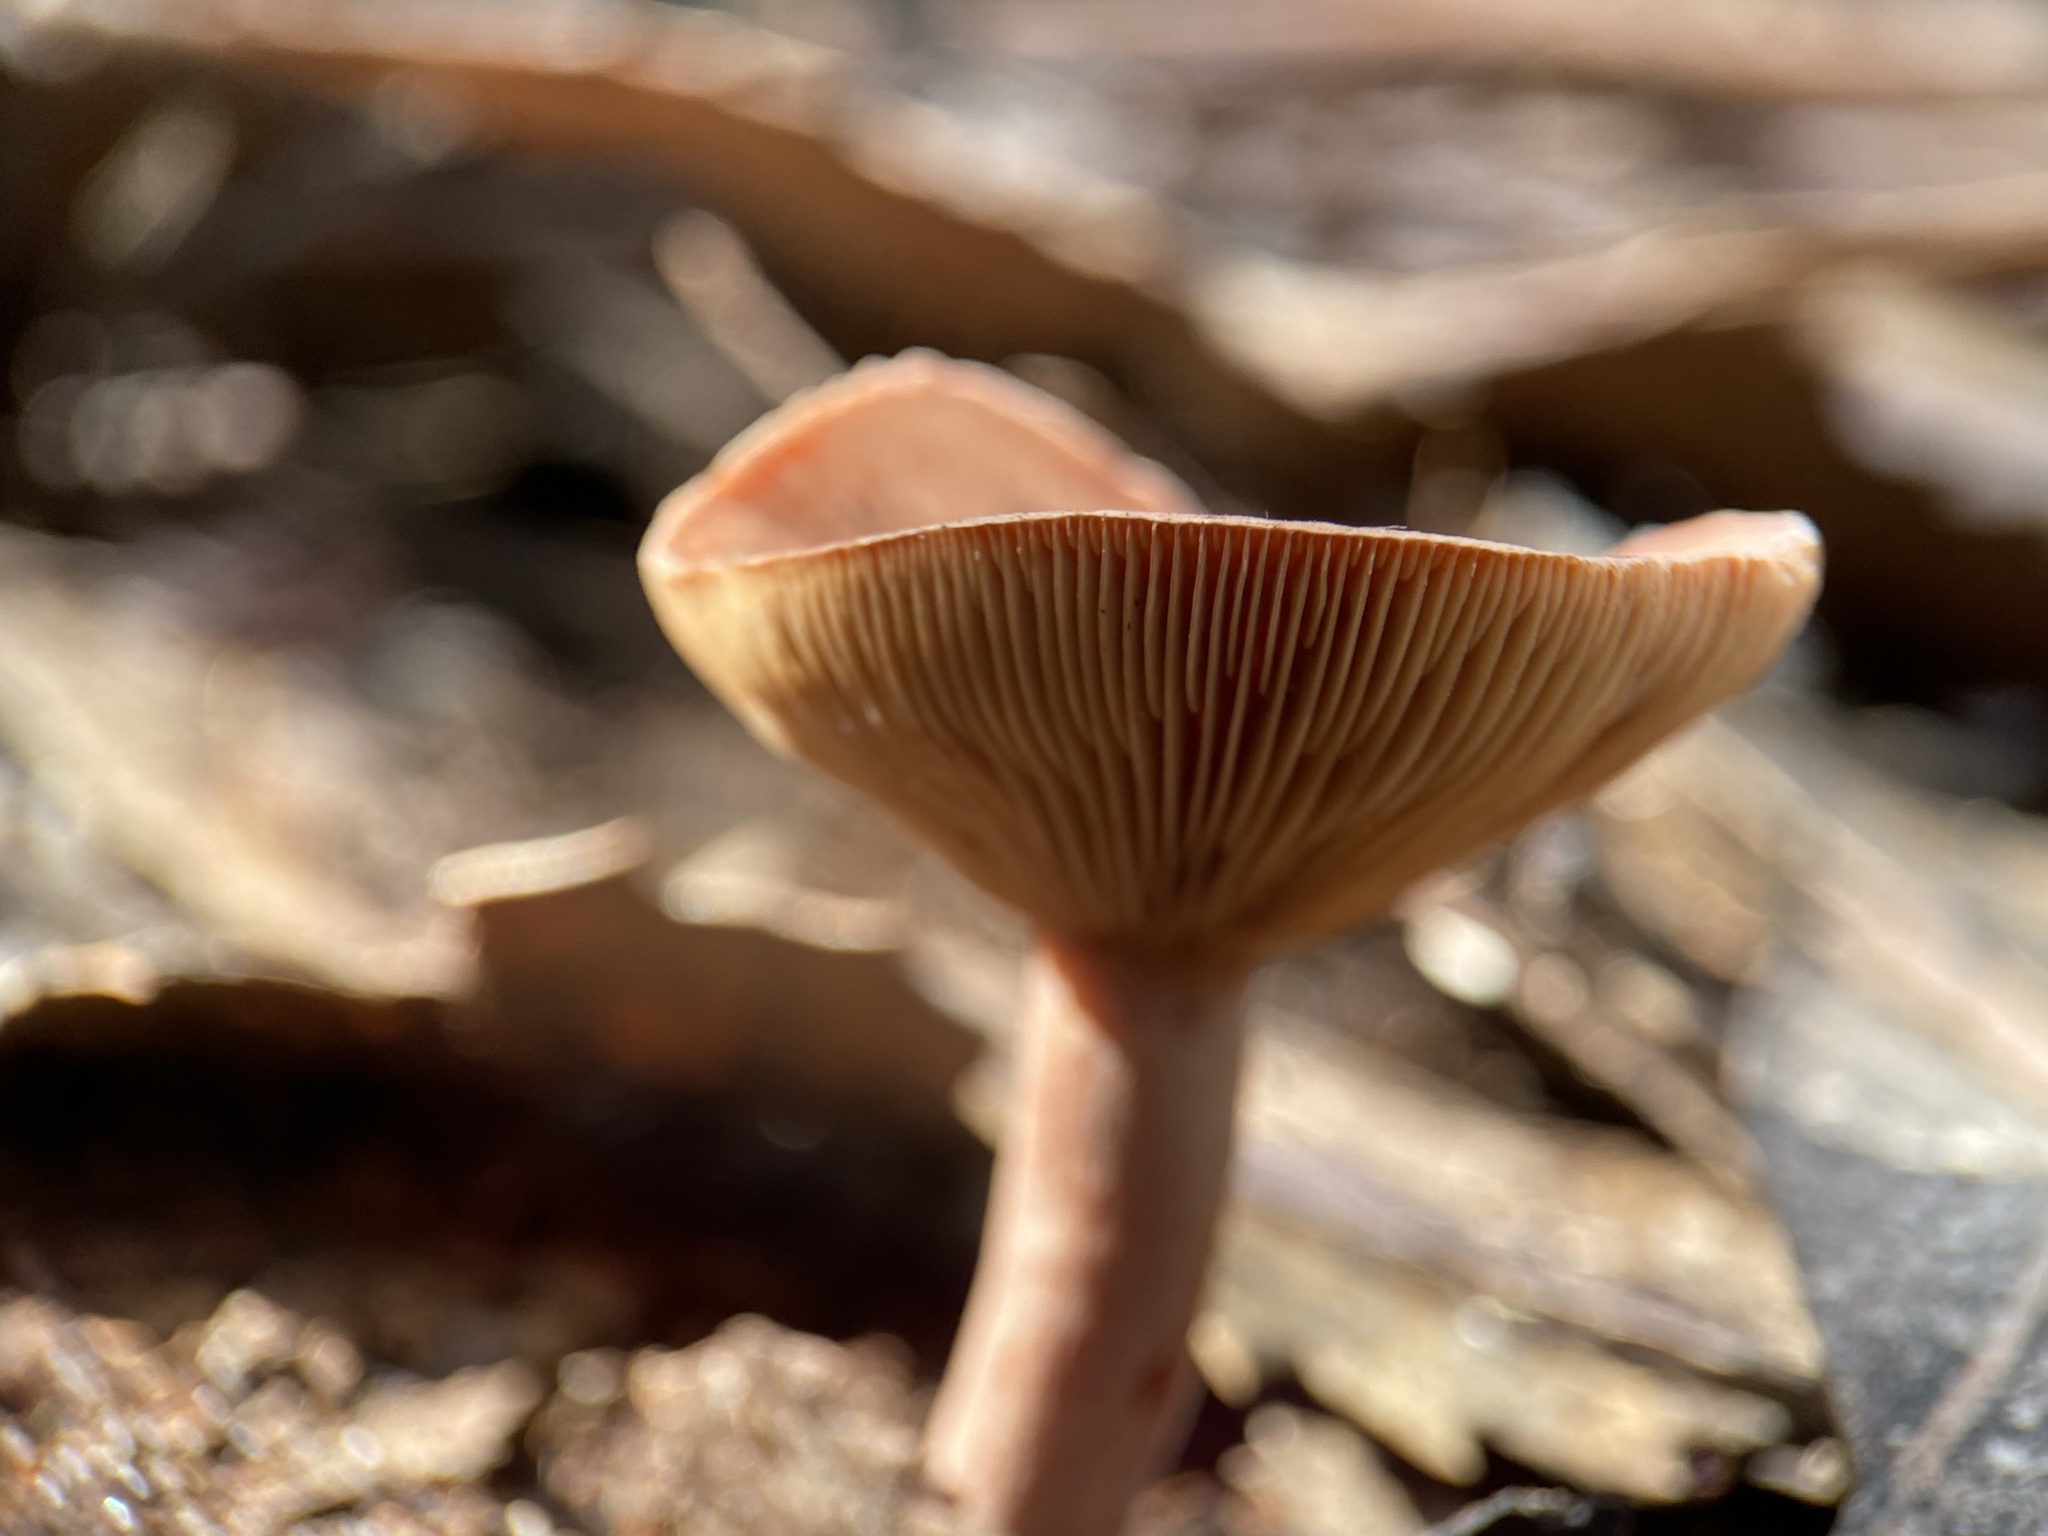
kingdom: Fungi
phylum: Basidiomycota
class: Agaricomycetes
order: Russulales
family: Russulaceae
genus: Lactarius
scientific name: Lactarius eucalypti
